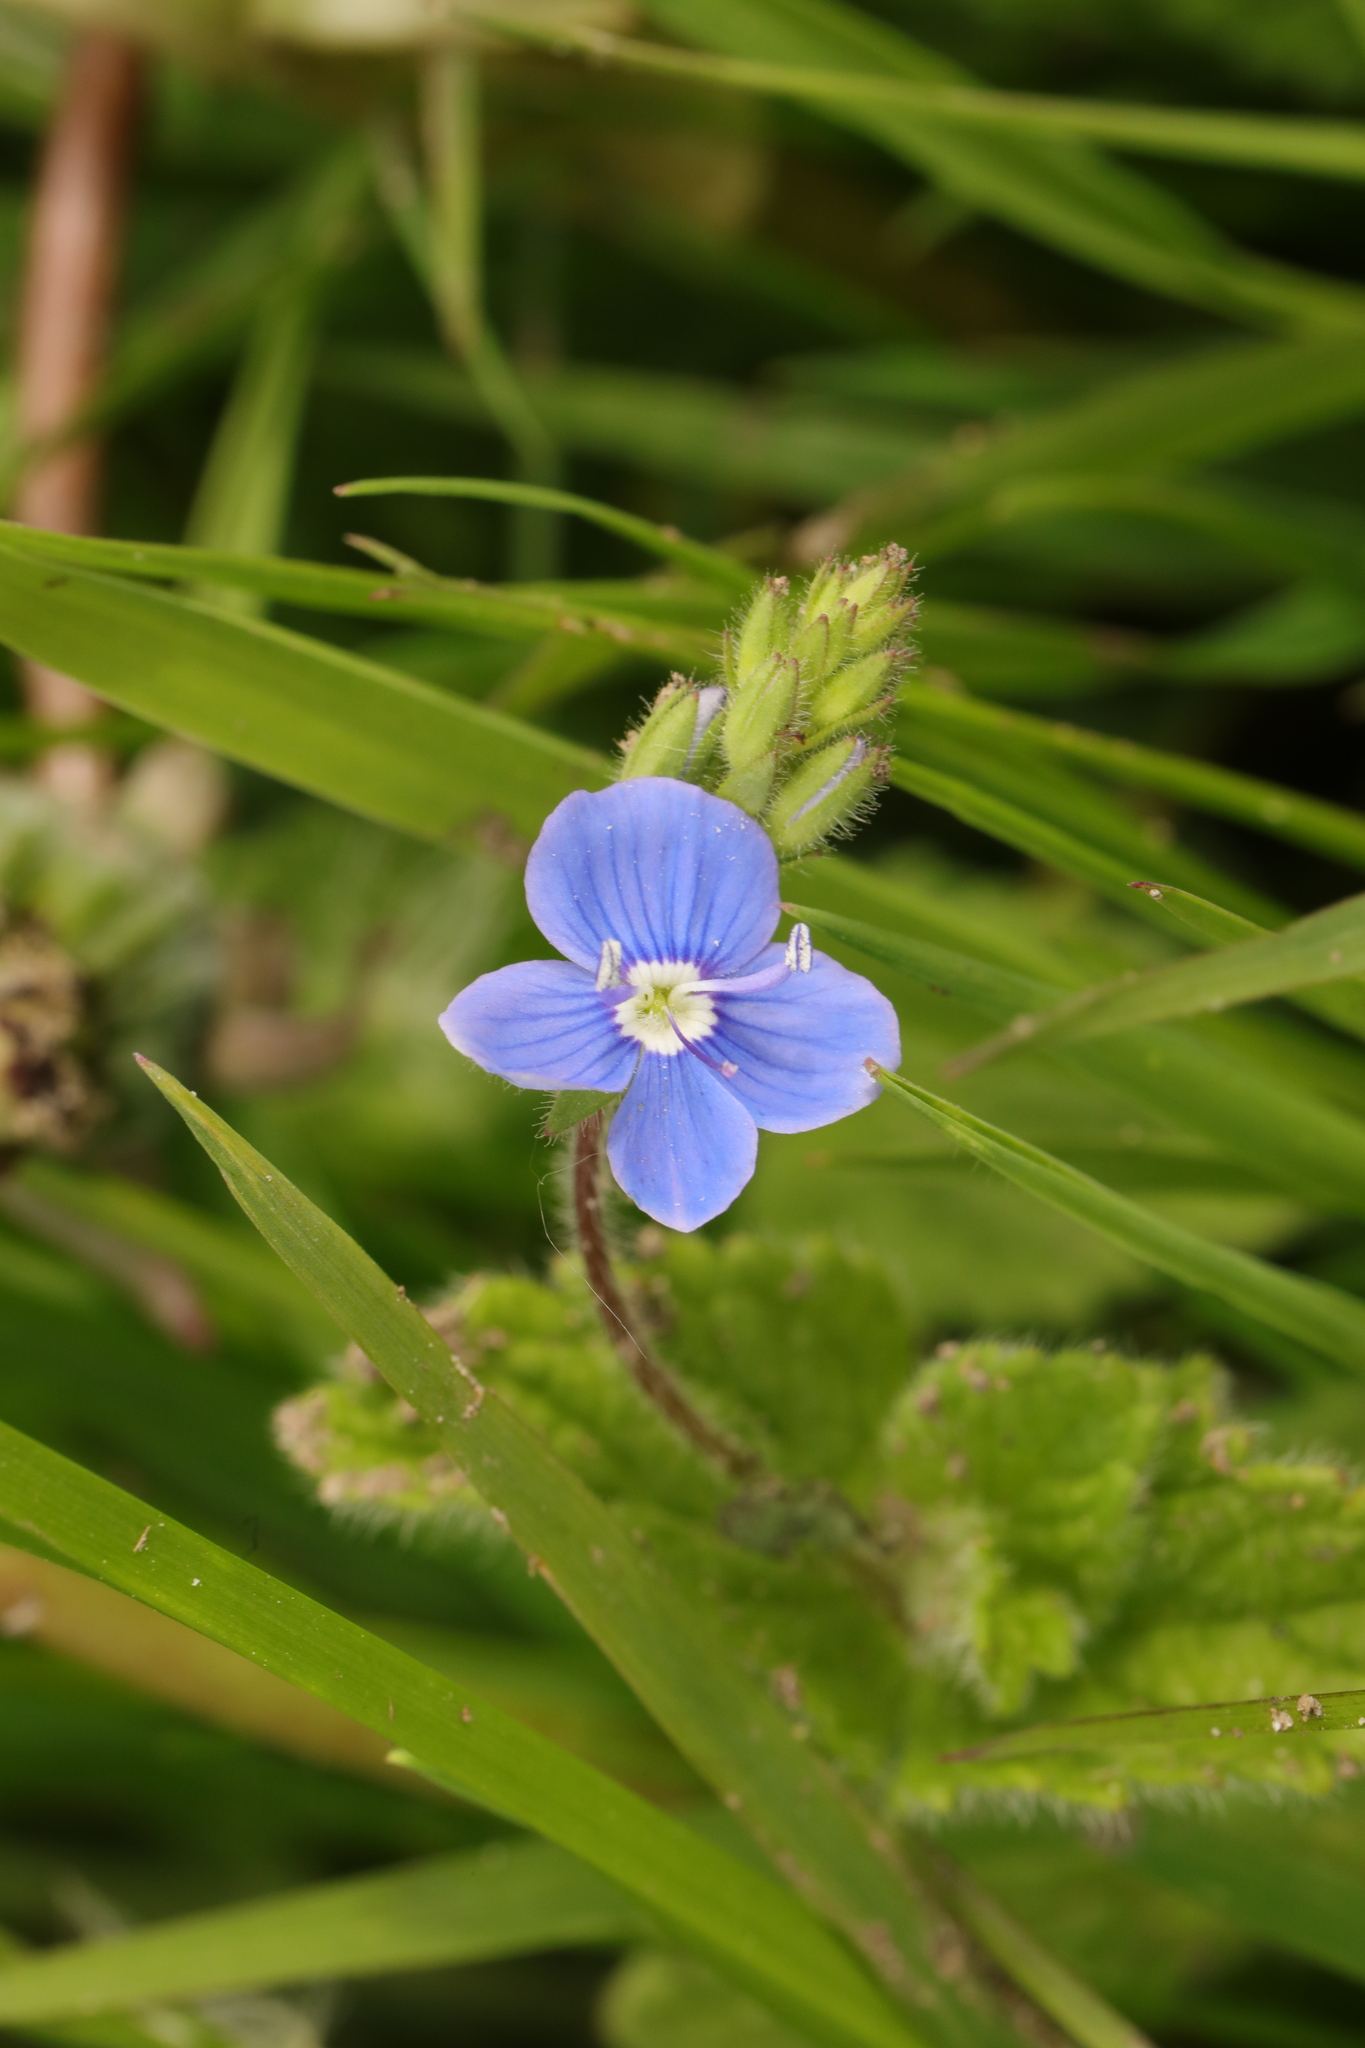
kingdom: Plantae
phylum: Tracheophyta
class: Magnoliopsida
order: Lamiales
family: Plantaginaceae
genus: Veronica
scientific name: Veronica chamaedrys
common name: Germander speedwell
